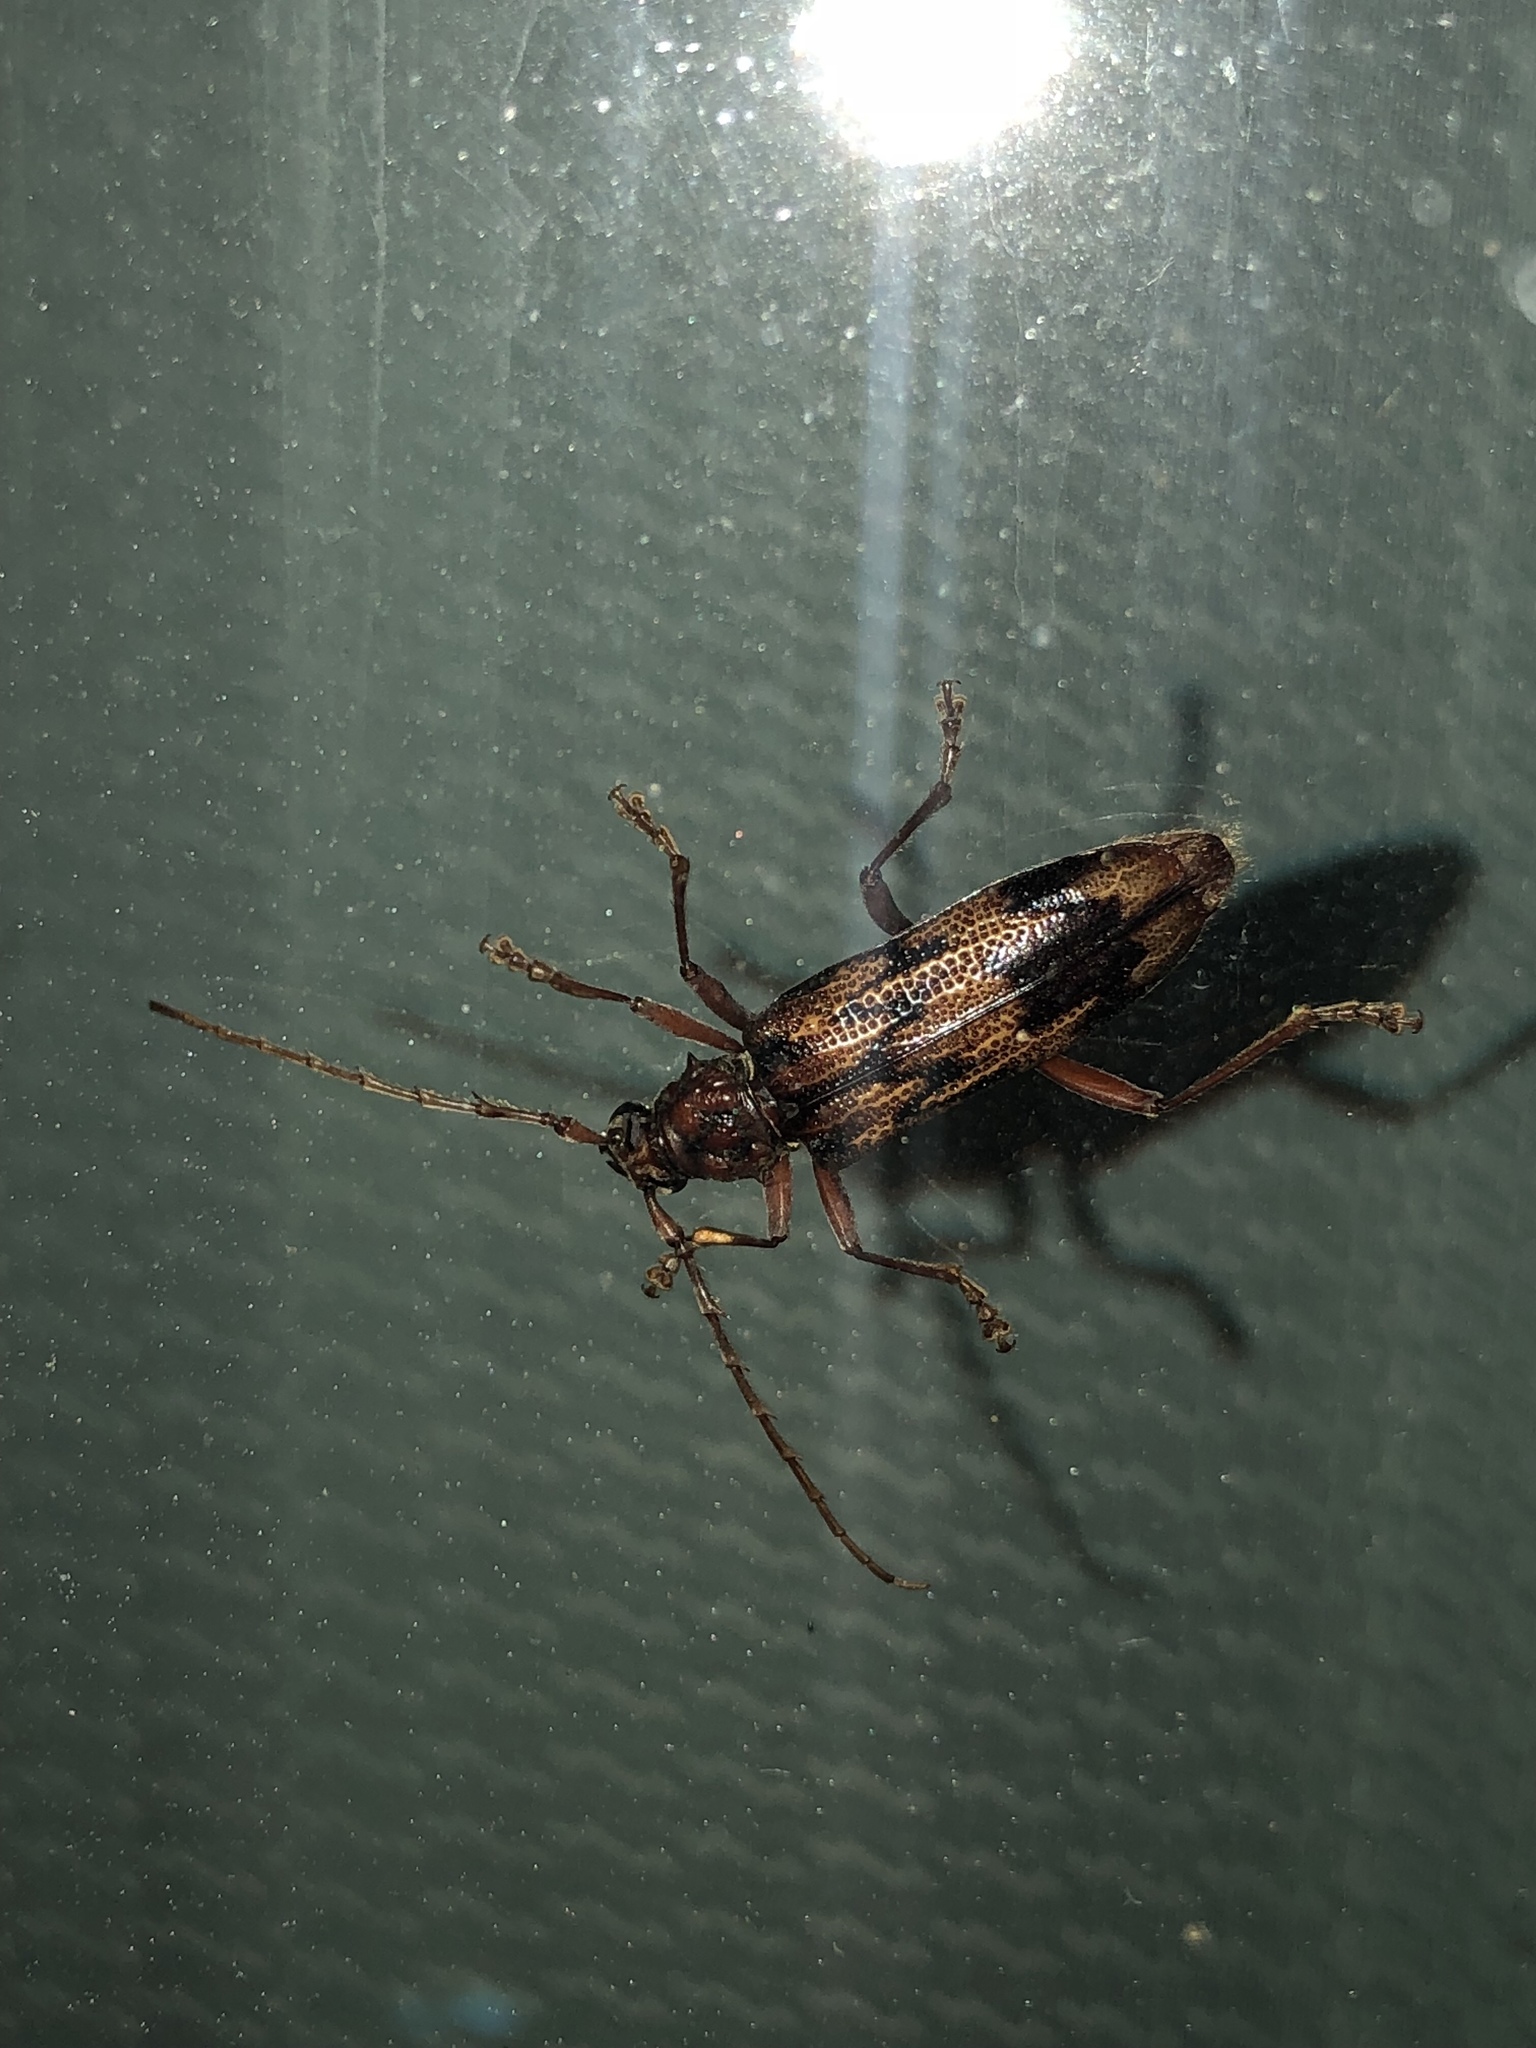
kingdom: Animalia
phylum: Arthropoda
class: Insecta
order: Coleoptera
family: Cerambycidae
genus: Phoracantha
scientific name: Phoracantha synonyma
